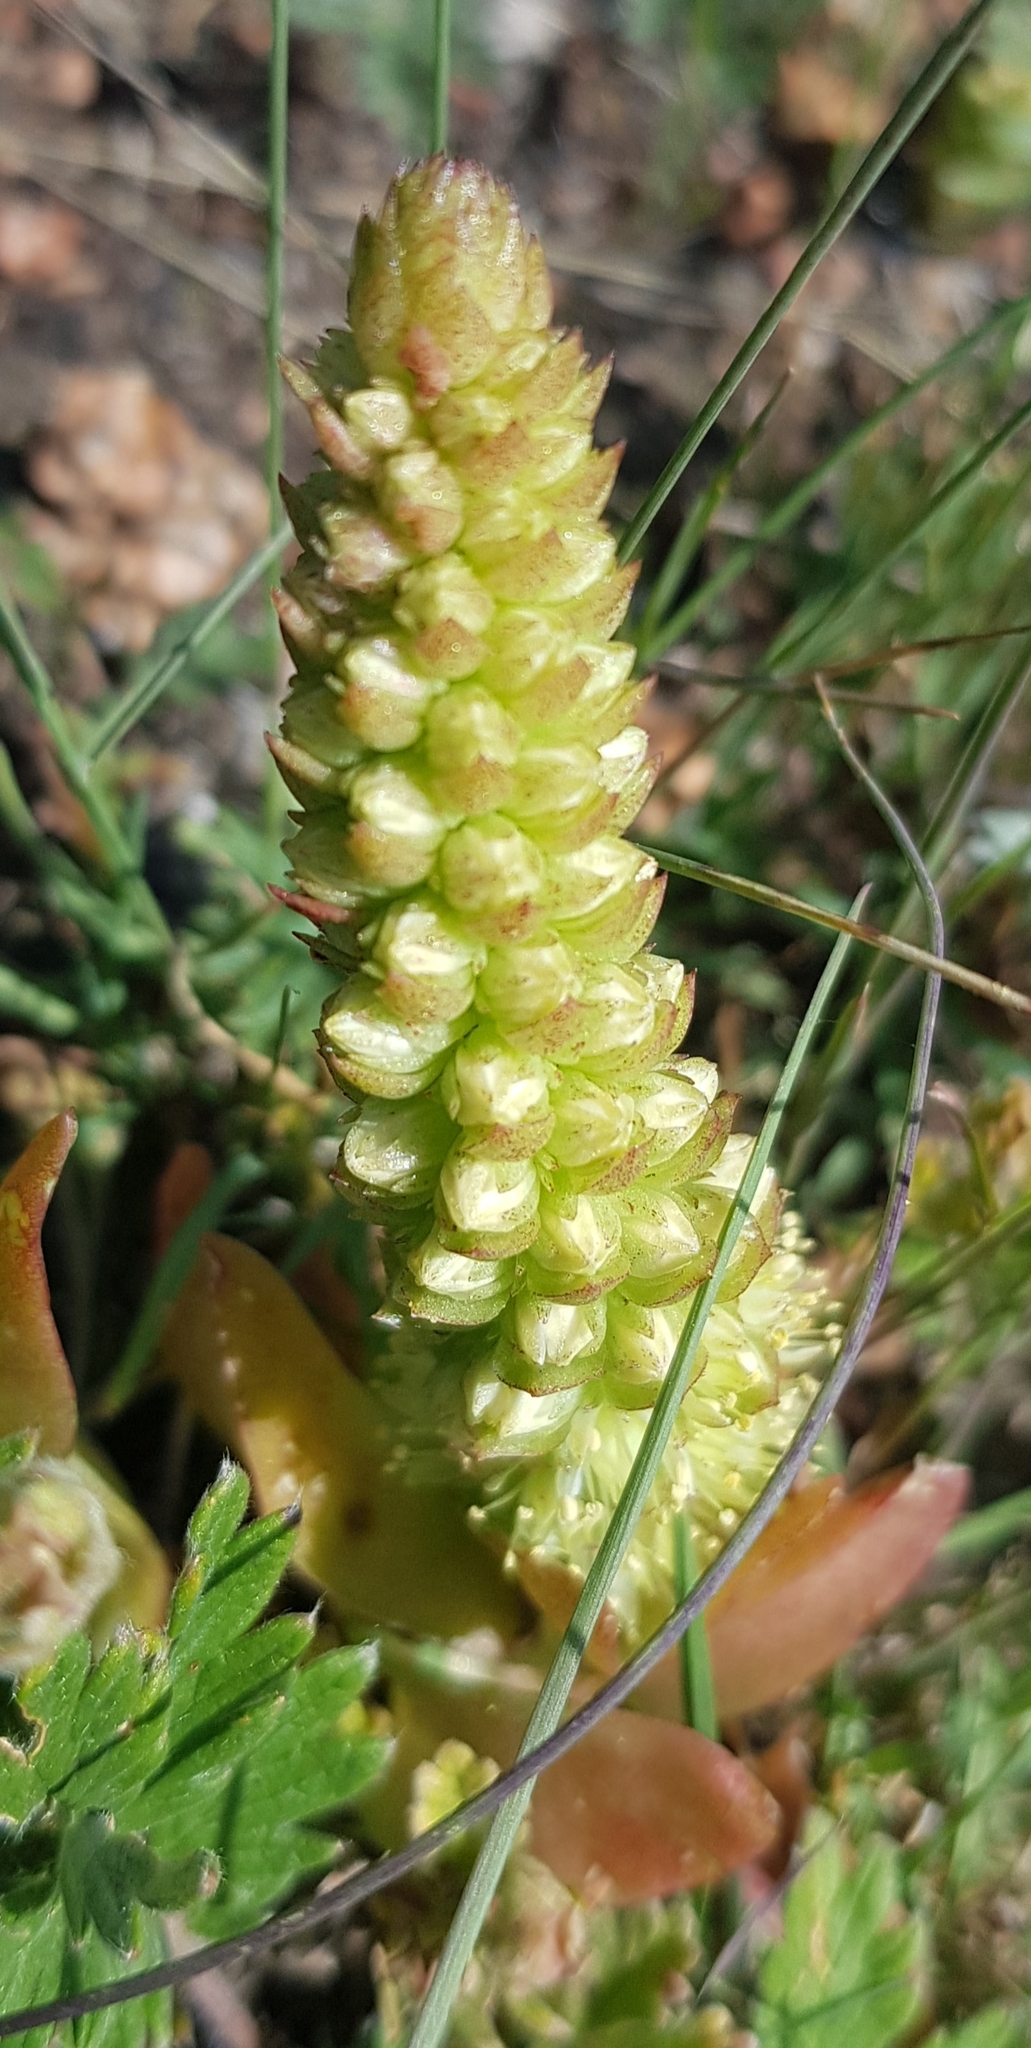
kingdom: Plantae
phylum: Tracheophyta
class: Magnoliopsida
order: Saxifragales
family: Crassulaceae
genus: Orostachys
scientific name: Orostachys malacophylla
